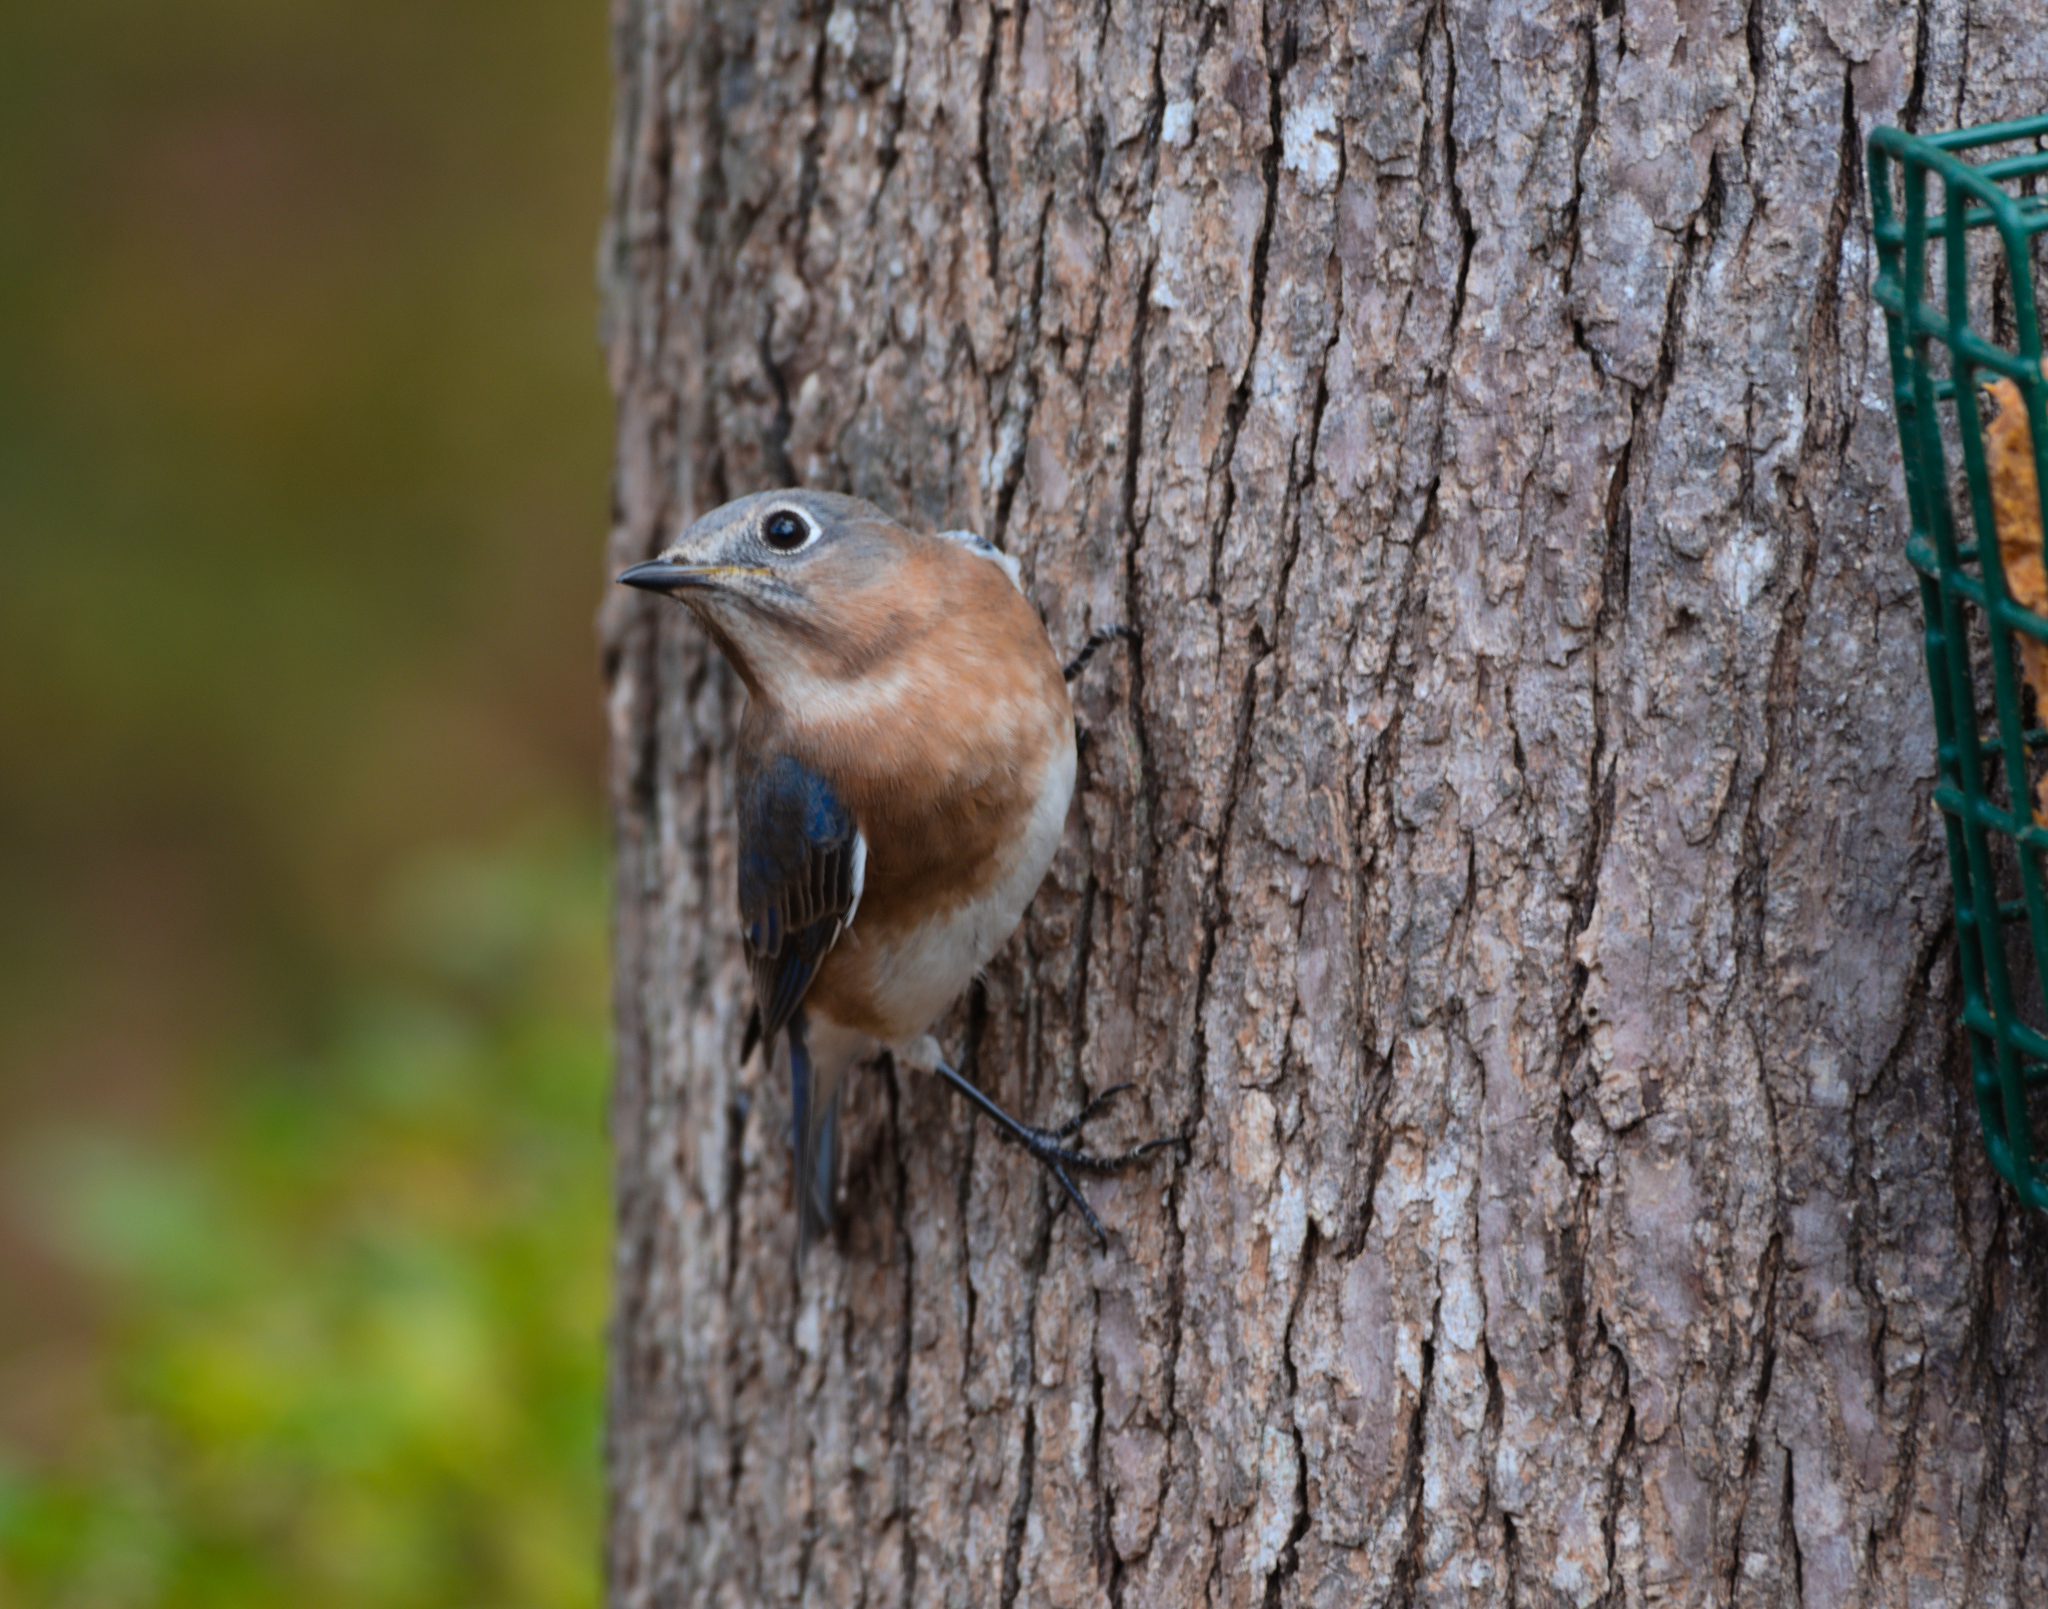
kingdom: Animalia
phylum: Chordata
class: Aves
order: Passeriformes
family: Turdidae
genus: Sialia
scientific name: Sialia sialis
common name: Eastern bluebird
